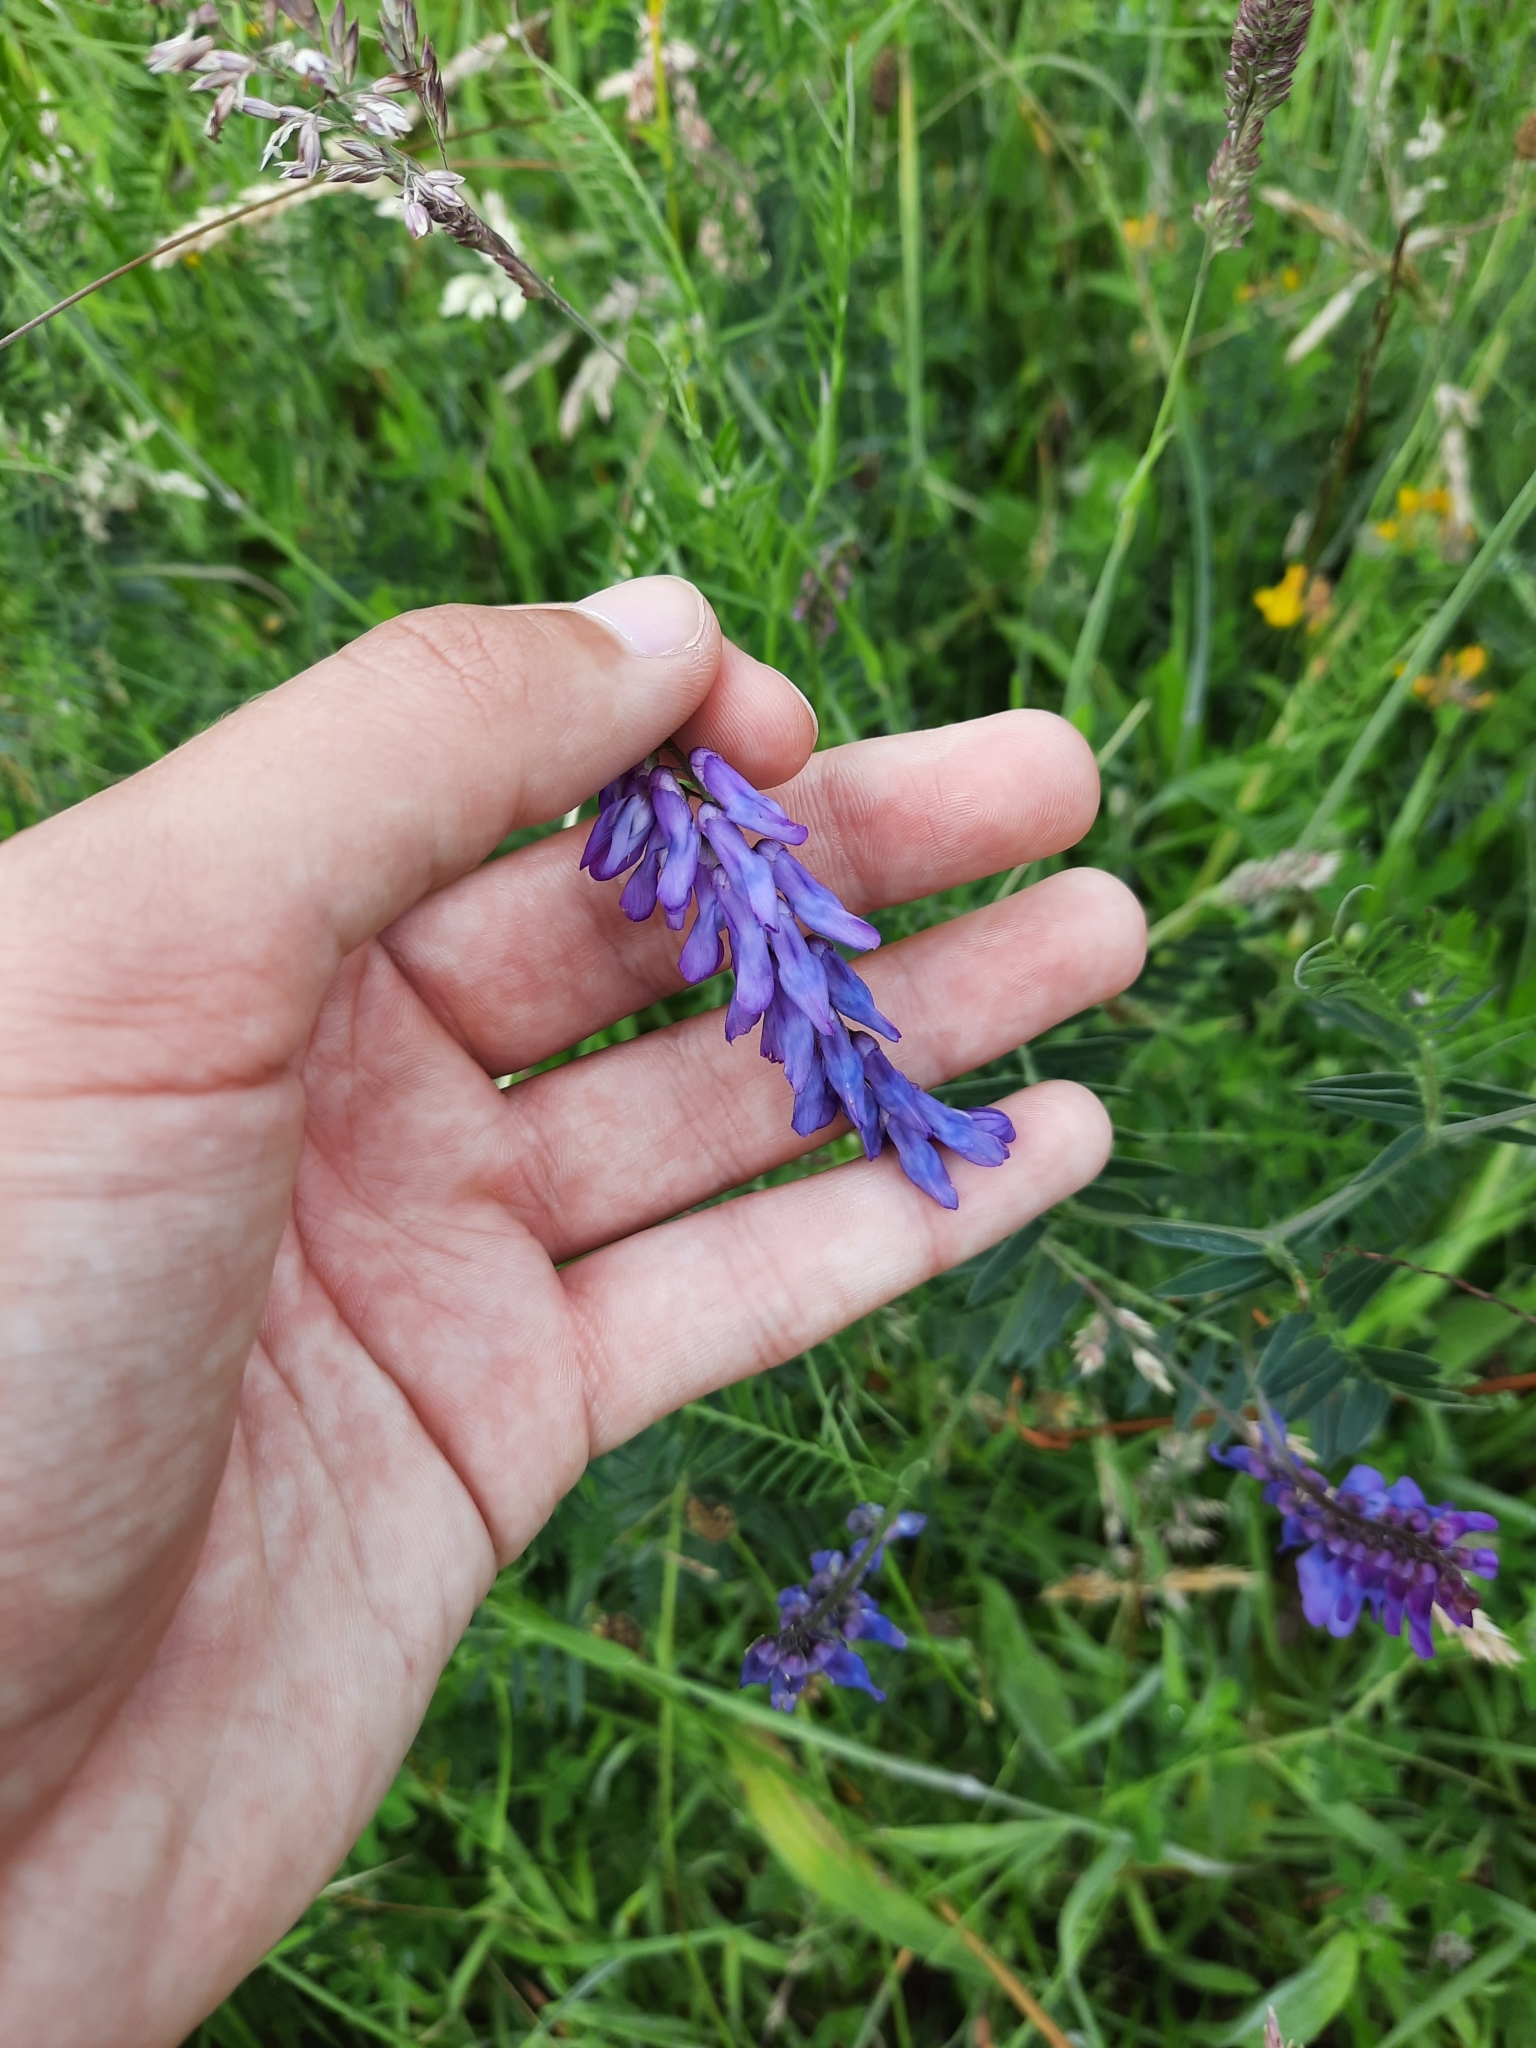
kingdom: Plantae
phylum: Tracheophyta
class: Magnoliopsida
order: Fabales
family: Fabaceae
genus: Vicia
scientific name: Vicia cracca
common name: Bird vetch
